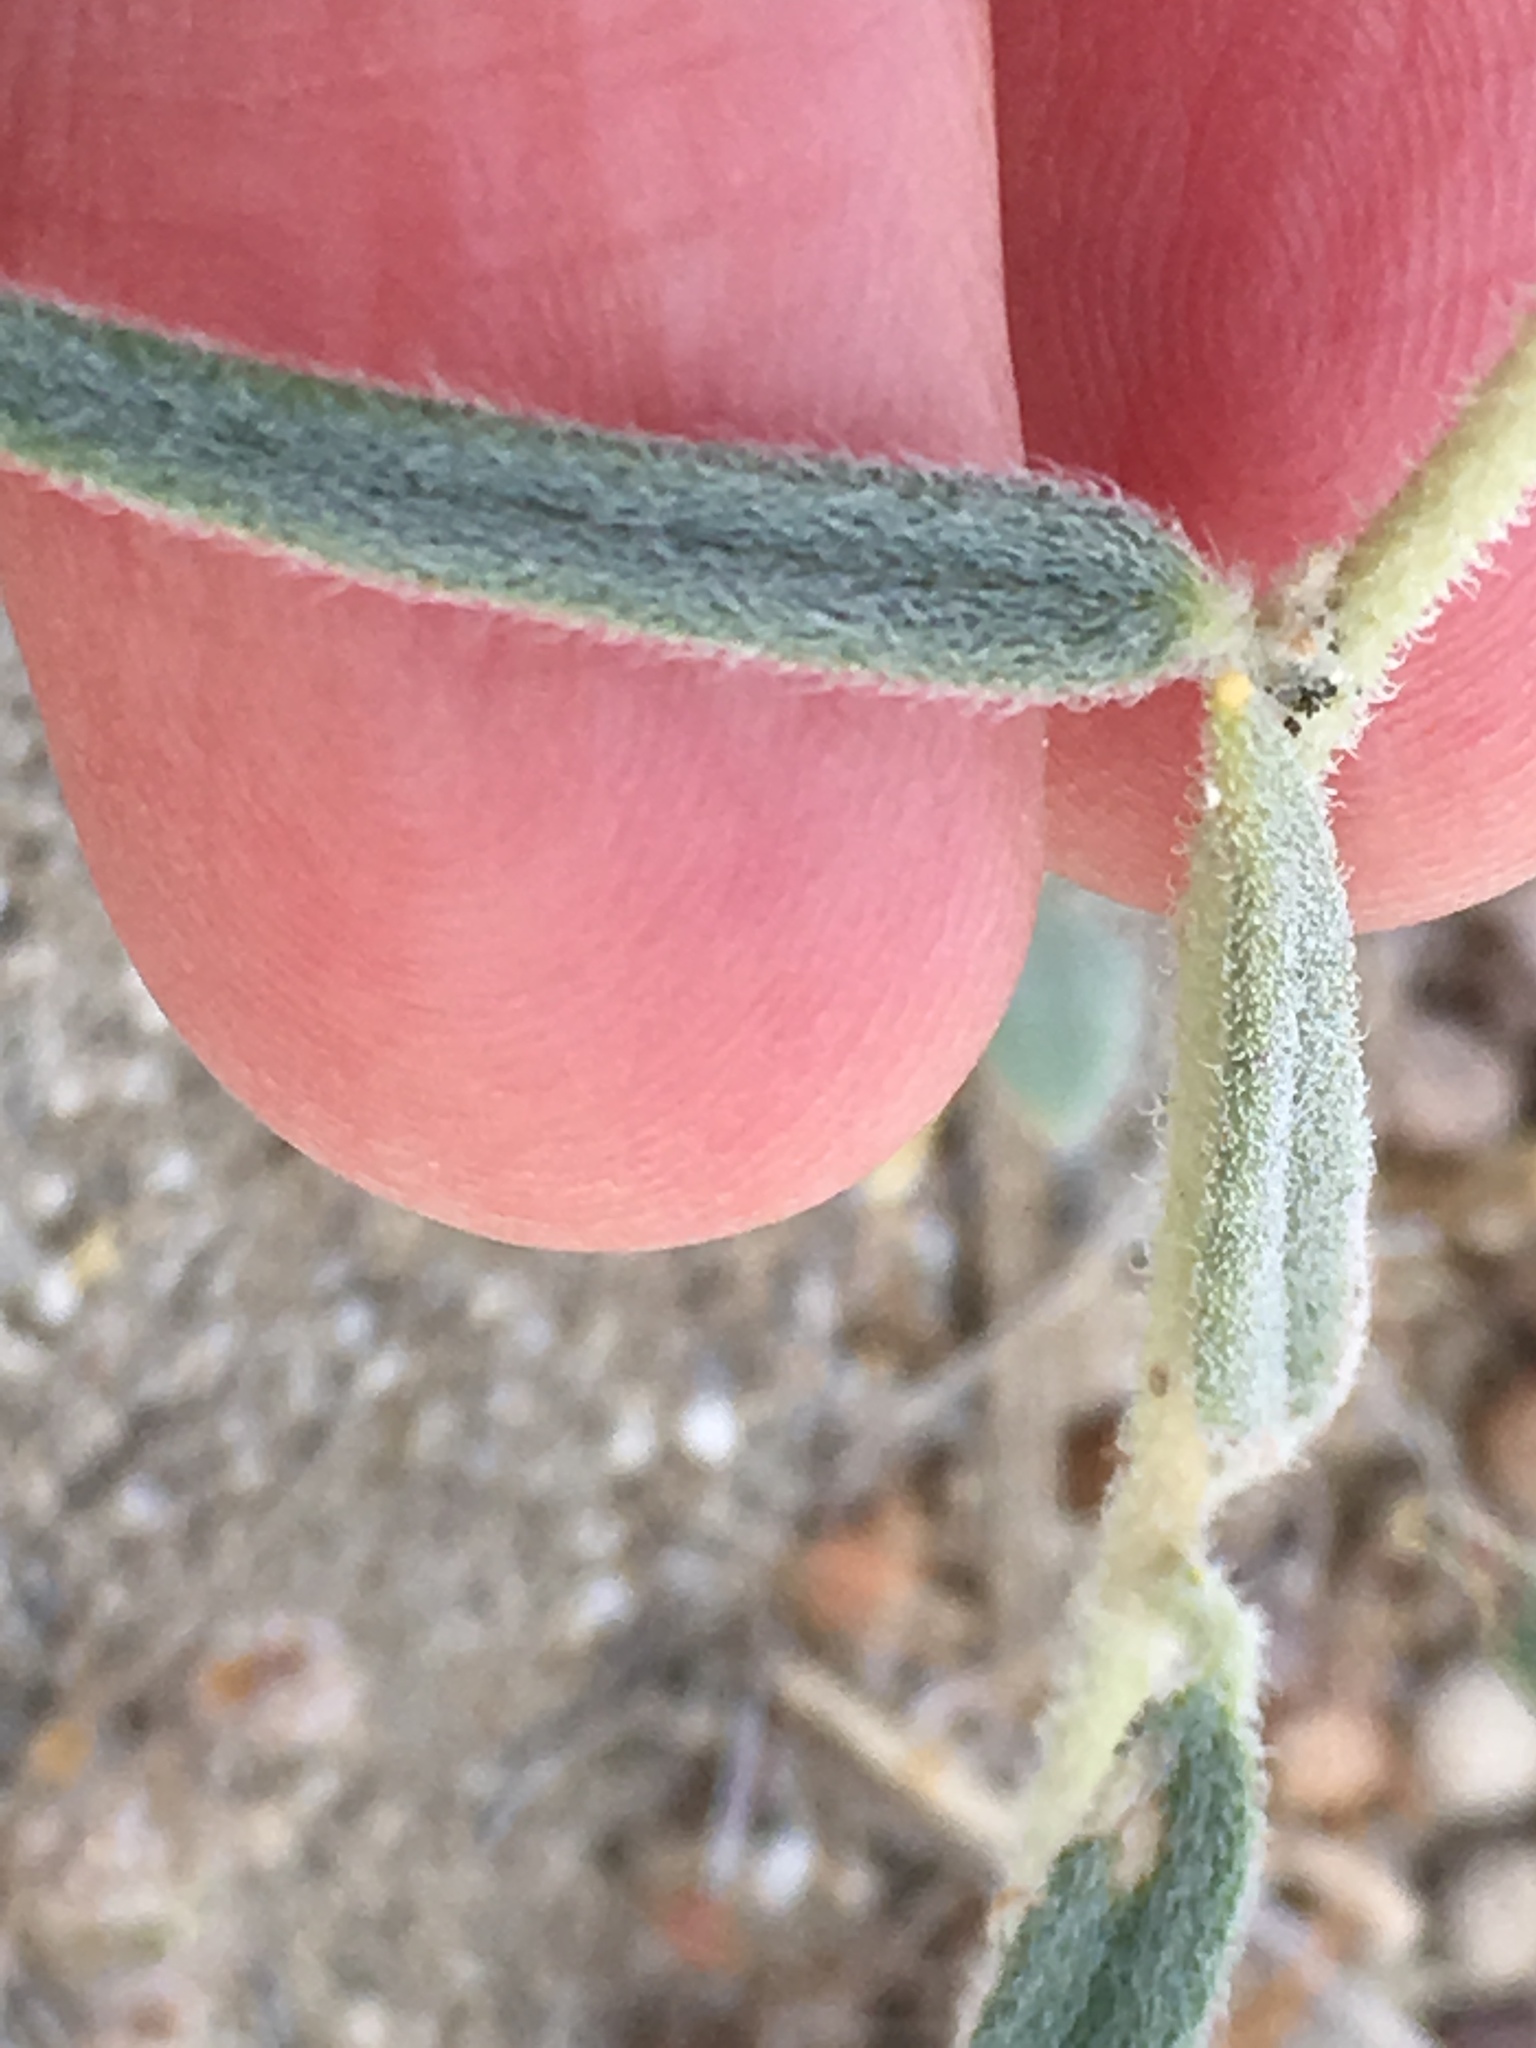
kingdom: Plantae
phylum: Tracheophyta
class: Magnoliopsida
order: Asterales
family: Asteraceae
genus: Palafoxia
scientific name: Palafoxia arida
